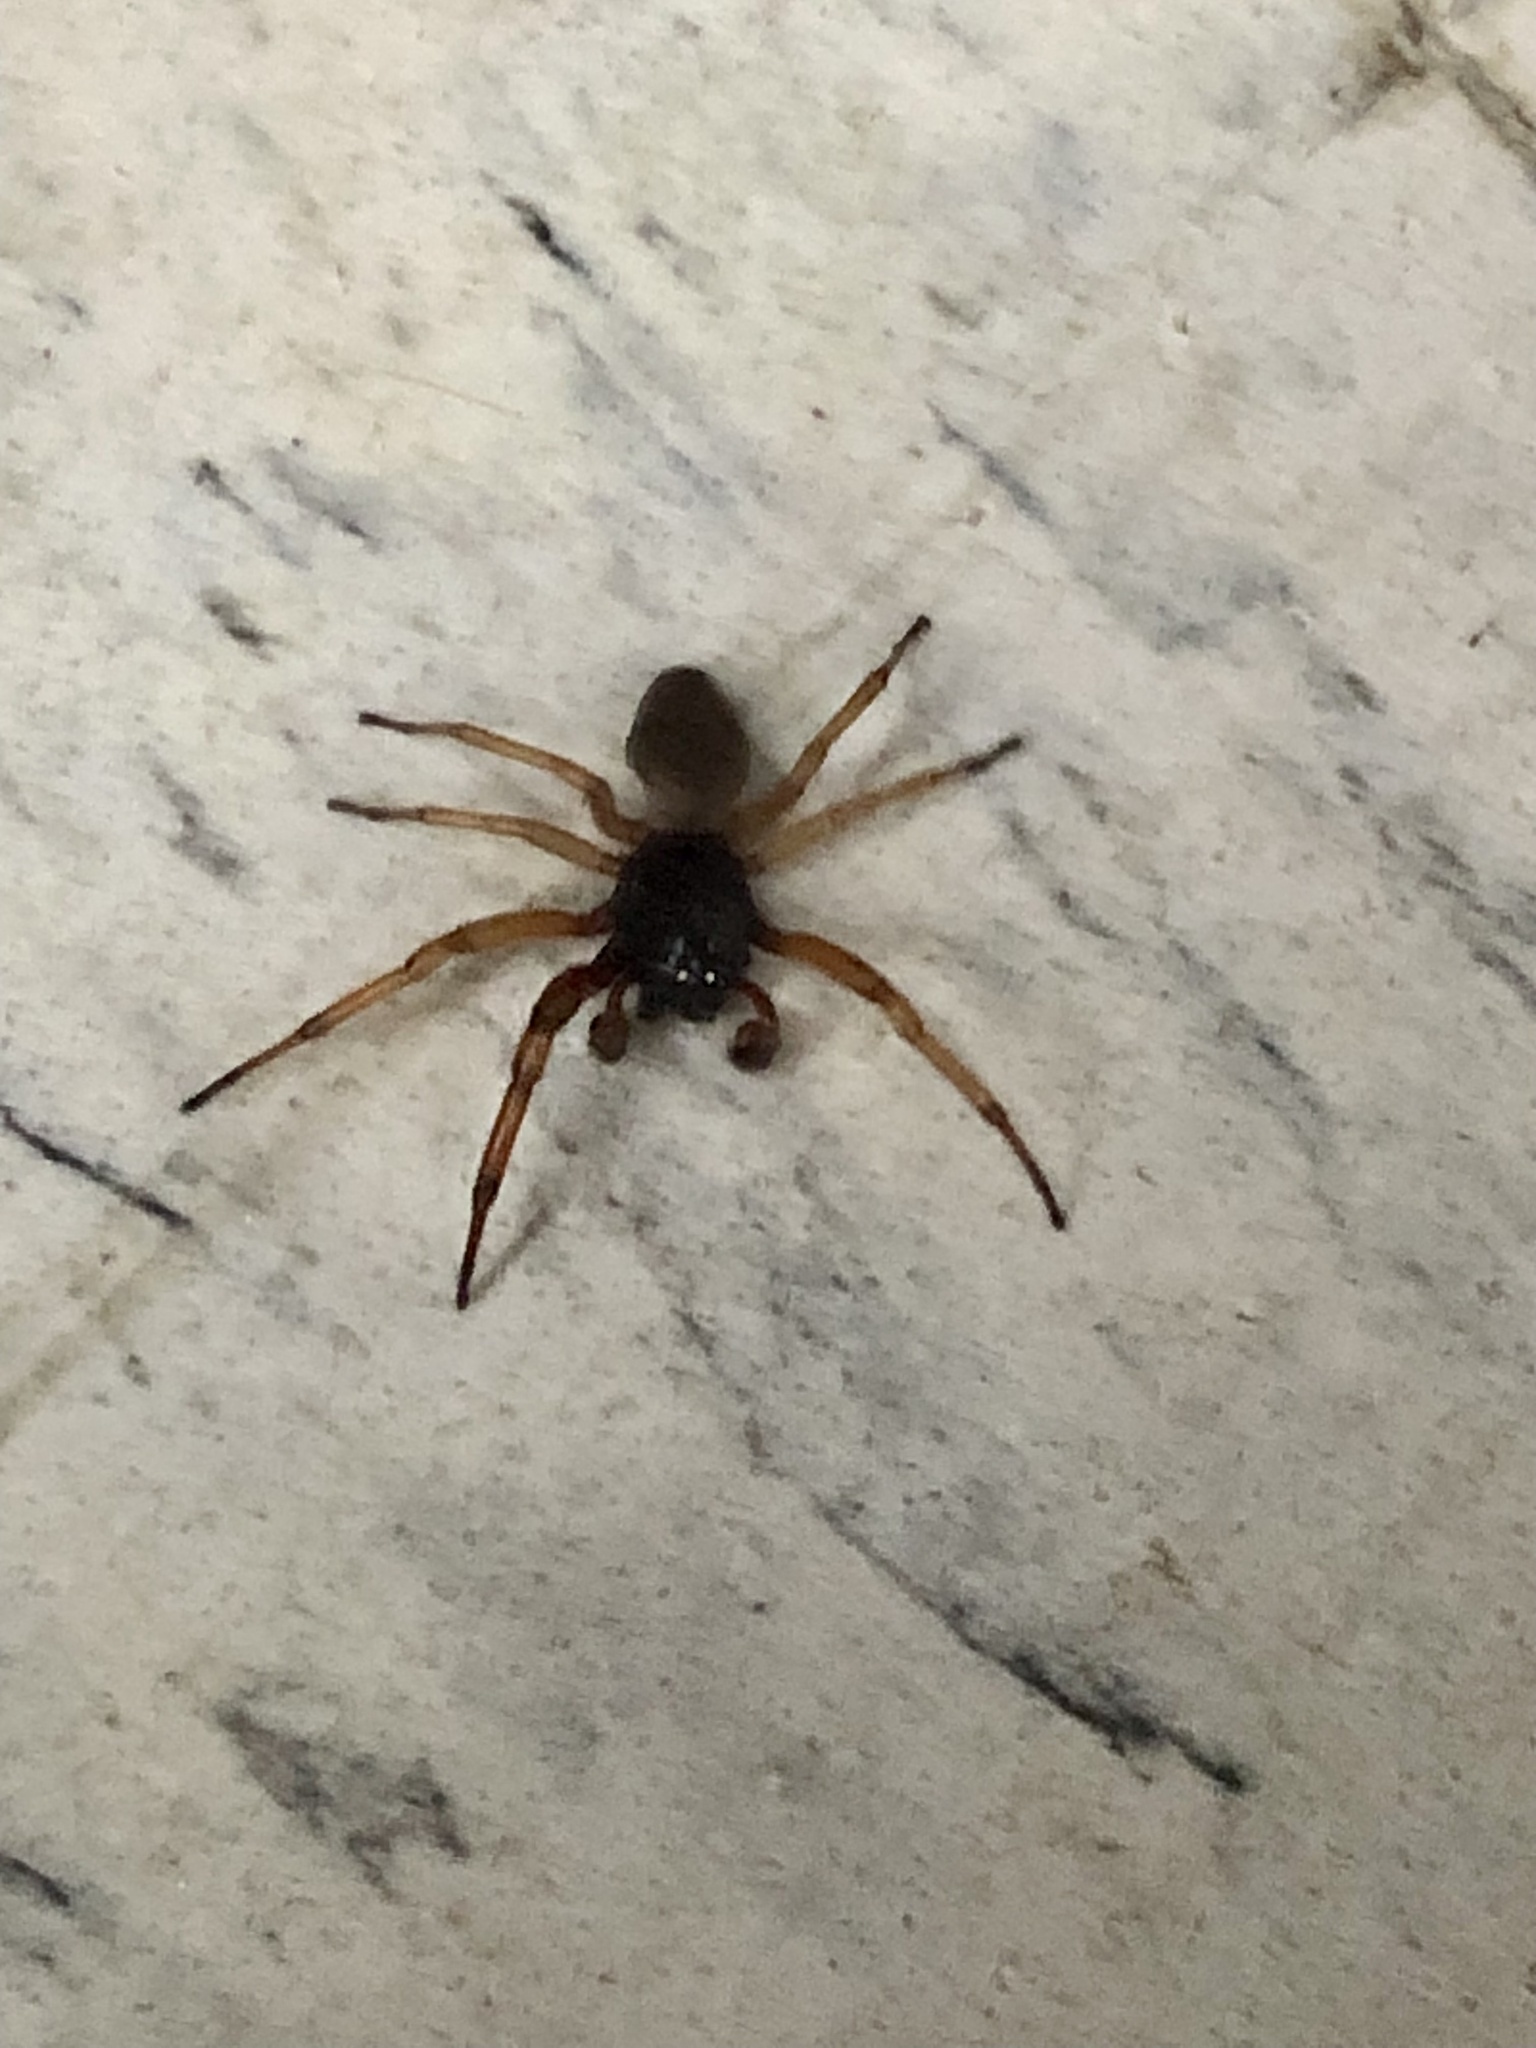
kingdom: Animalia
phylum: Arthropoda
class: Arachnida
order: Araneae
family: Trachelidae
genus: Trachelas
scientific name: Trachelas tranquillus
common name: Broad-faced sac spider
